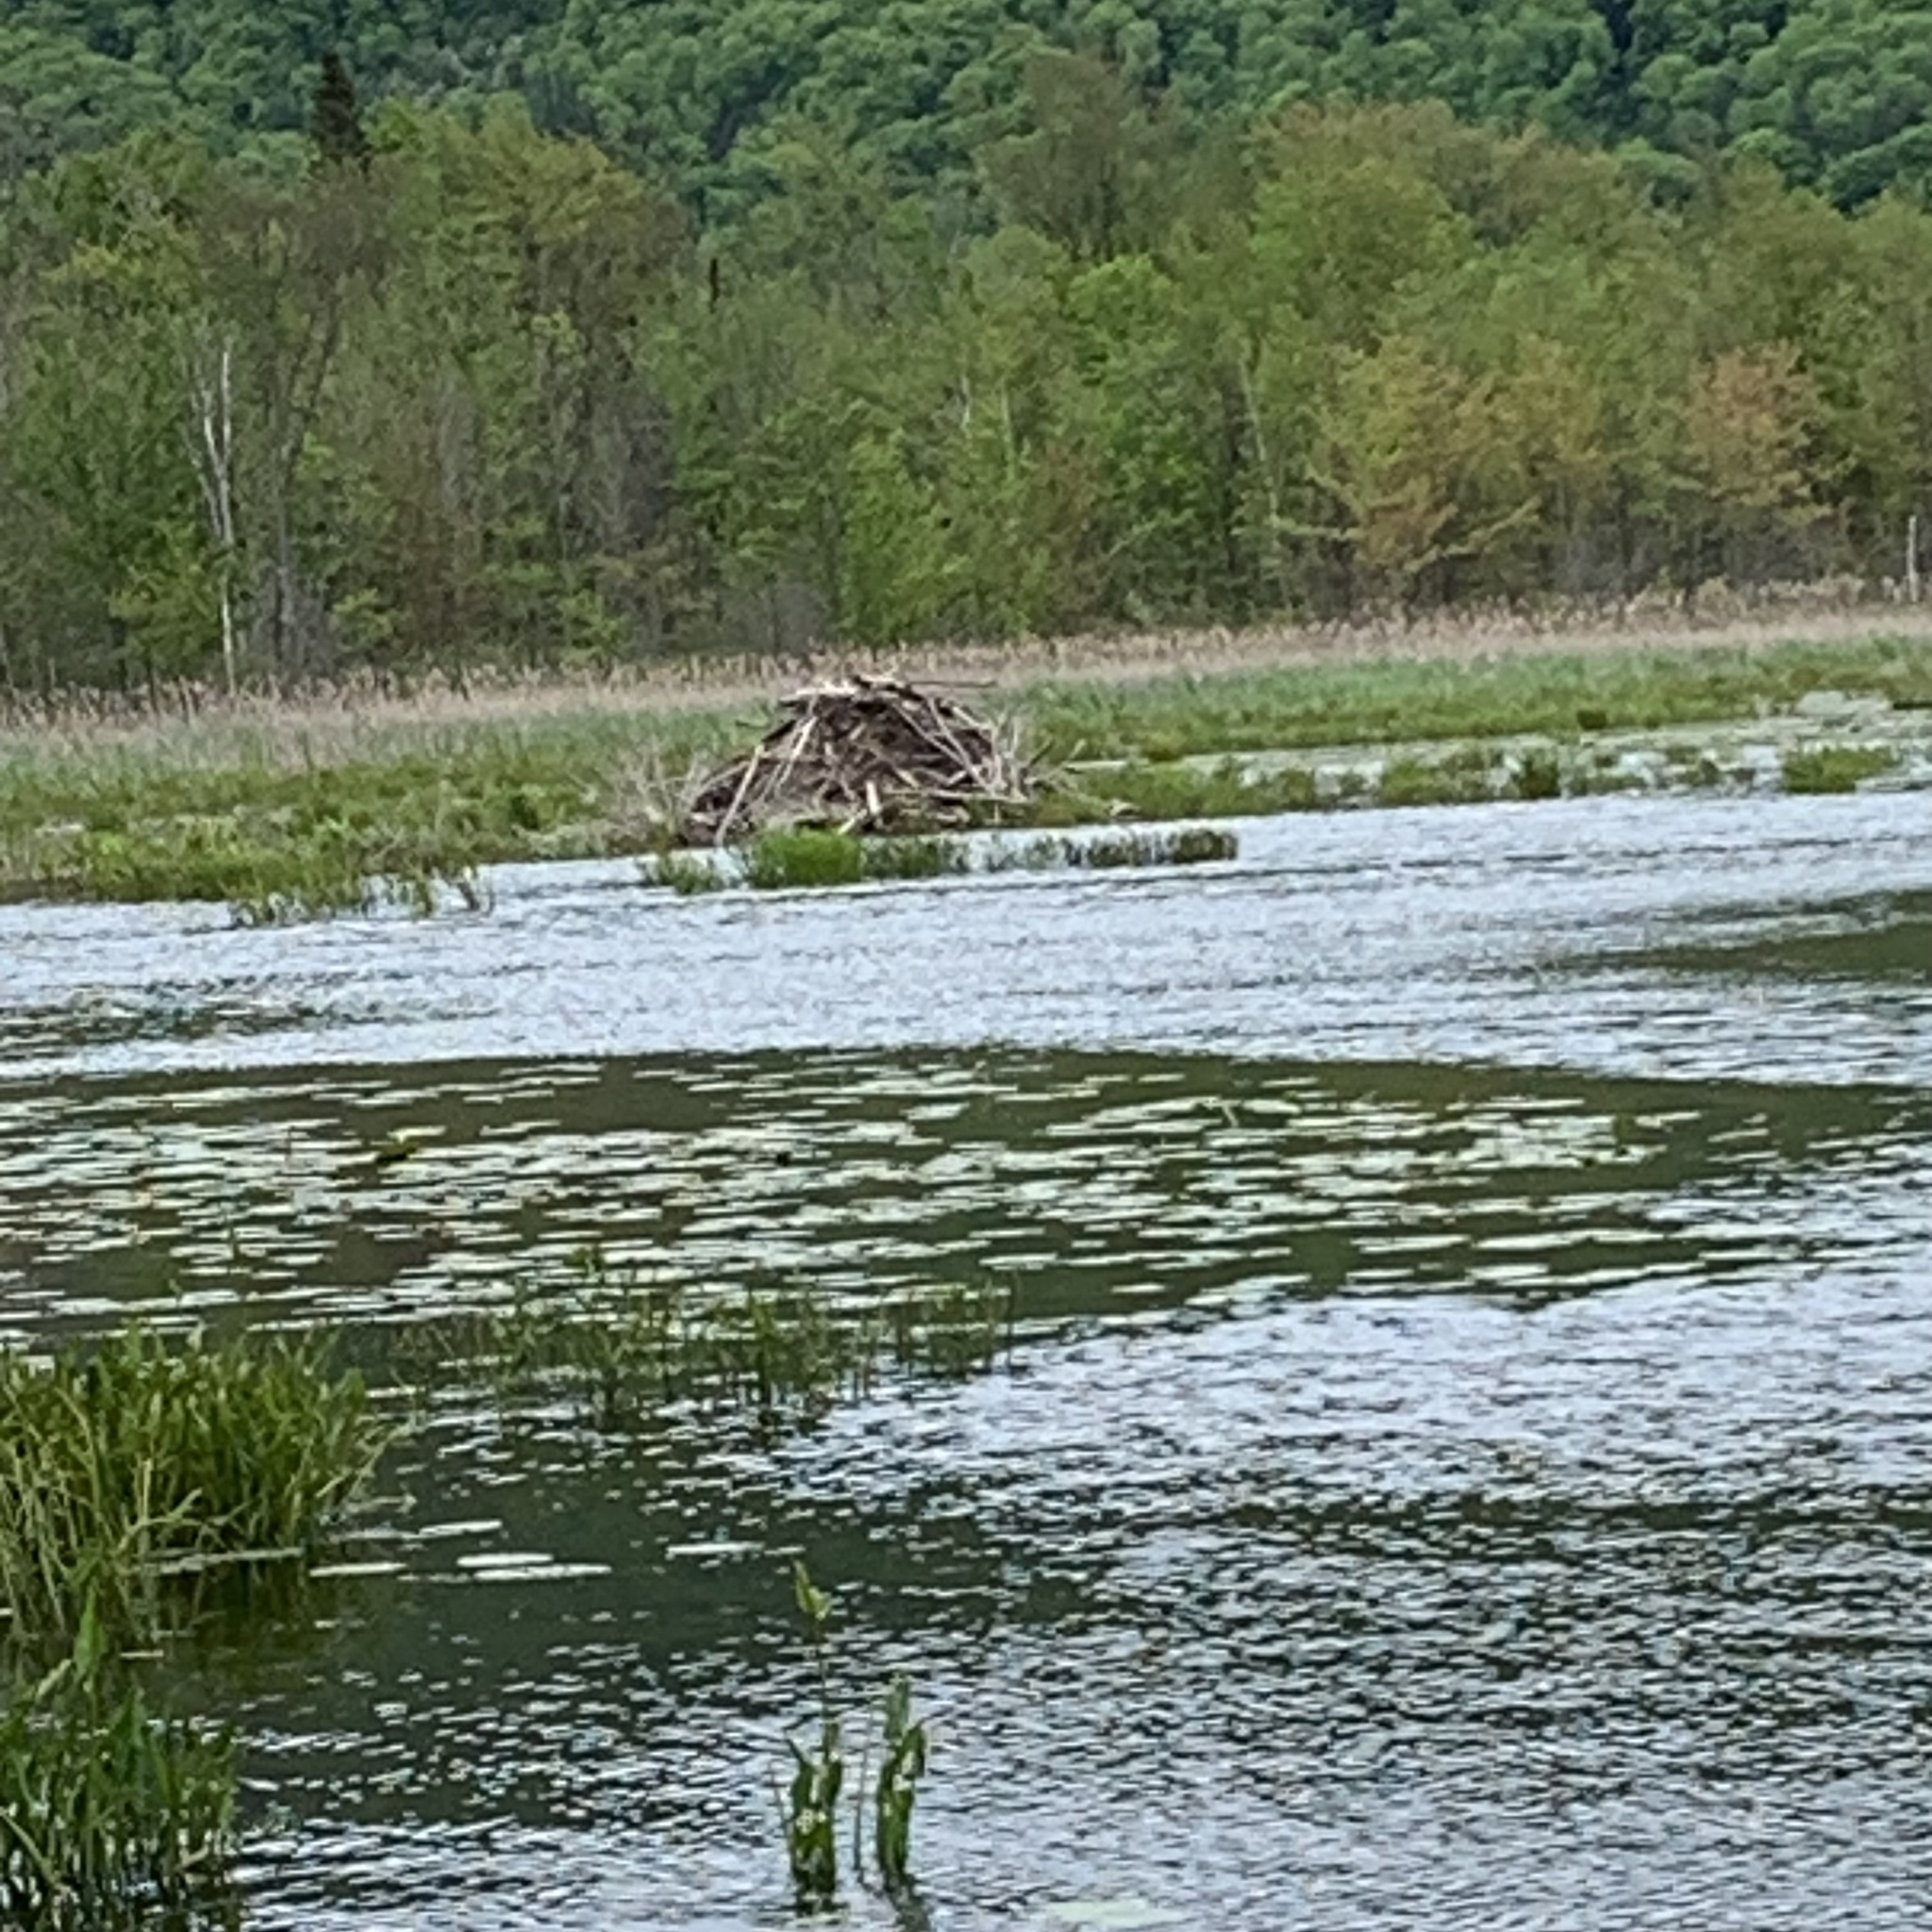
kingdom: Animalia
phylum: Chordata
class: Mammalia
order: Rodentia
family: Castoridae
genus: Castor
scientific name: Castor canadensis
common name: American beaver
